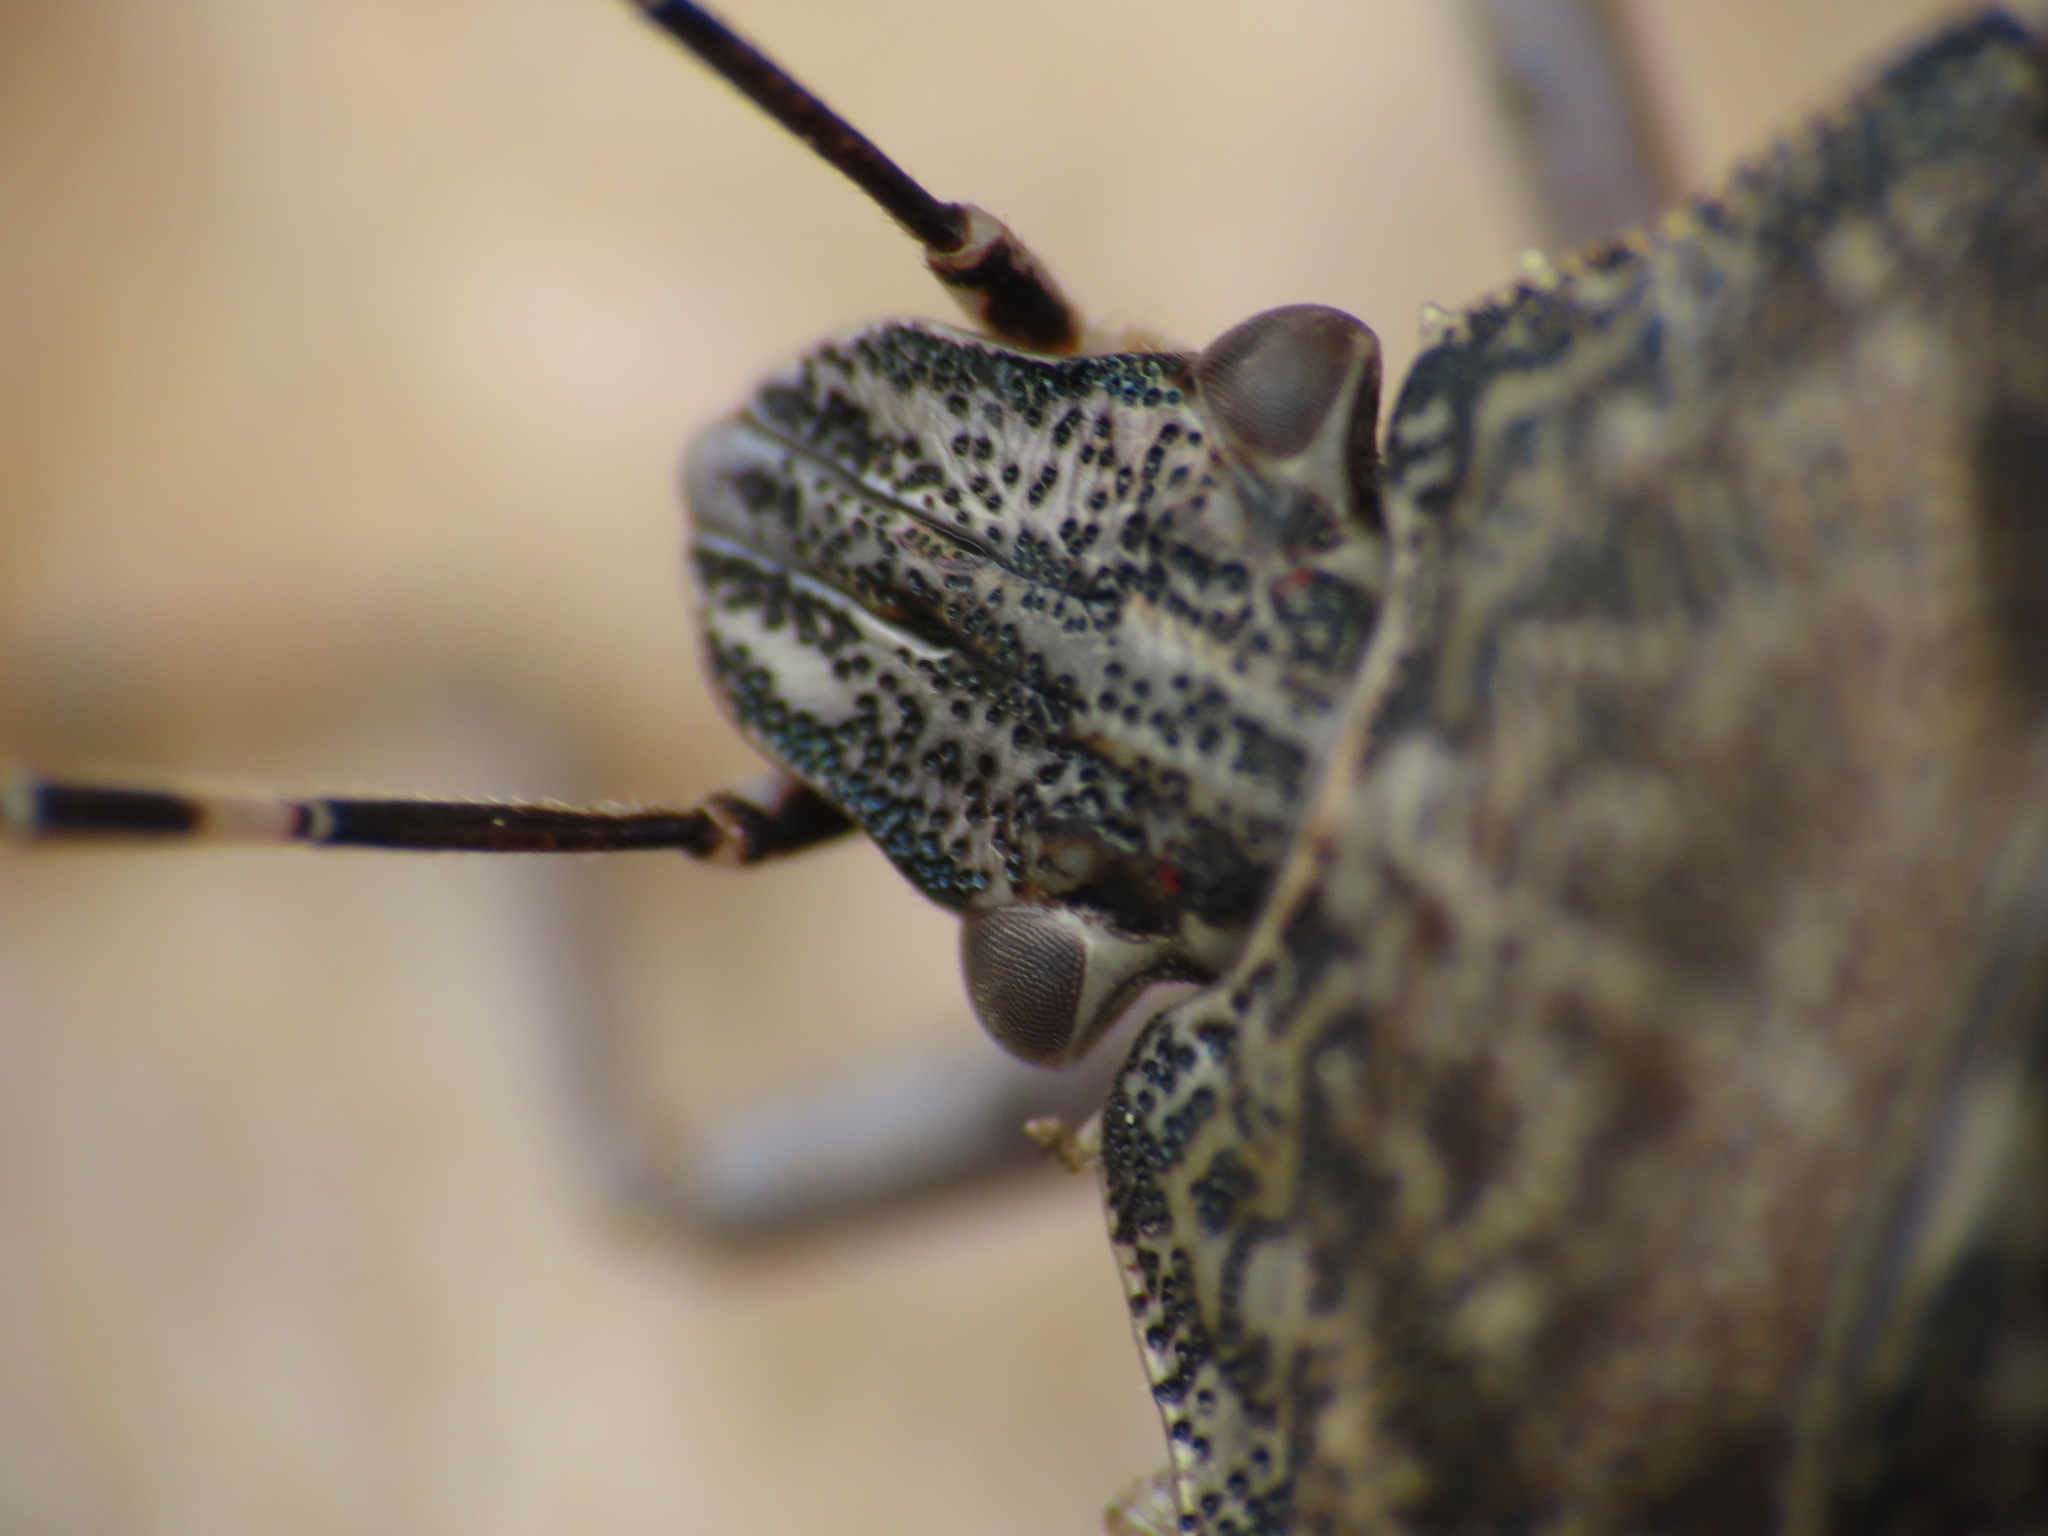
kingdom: Animalia
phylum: Arthropoda
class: Insecta
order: Hemiptera
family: Pentatomidae
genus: Rhaphigaster
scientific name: Rhaphigaster nebulosa
